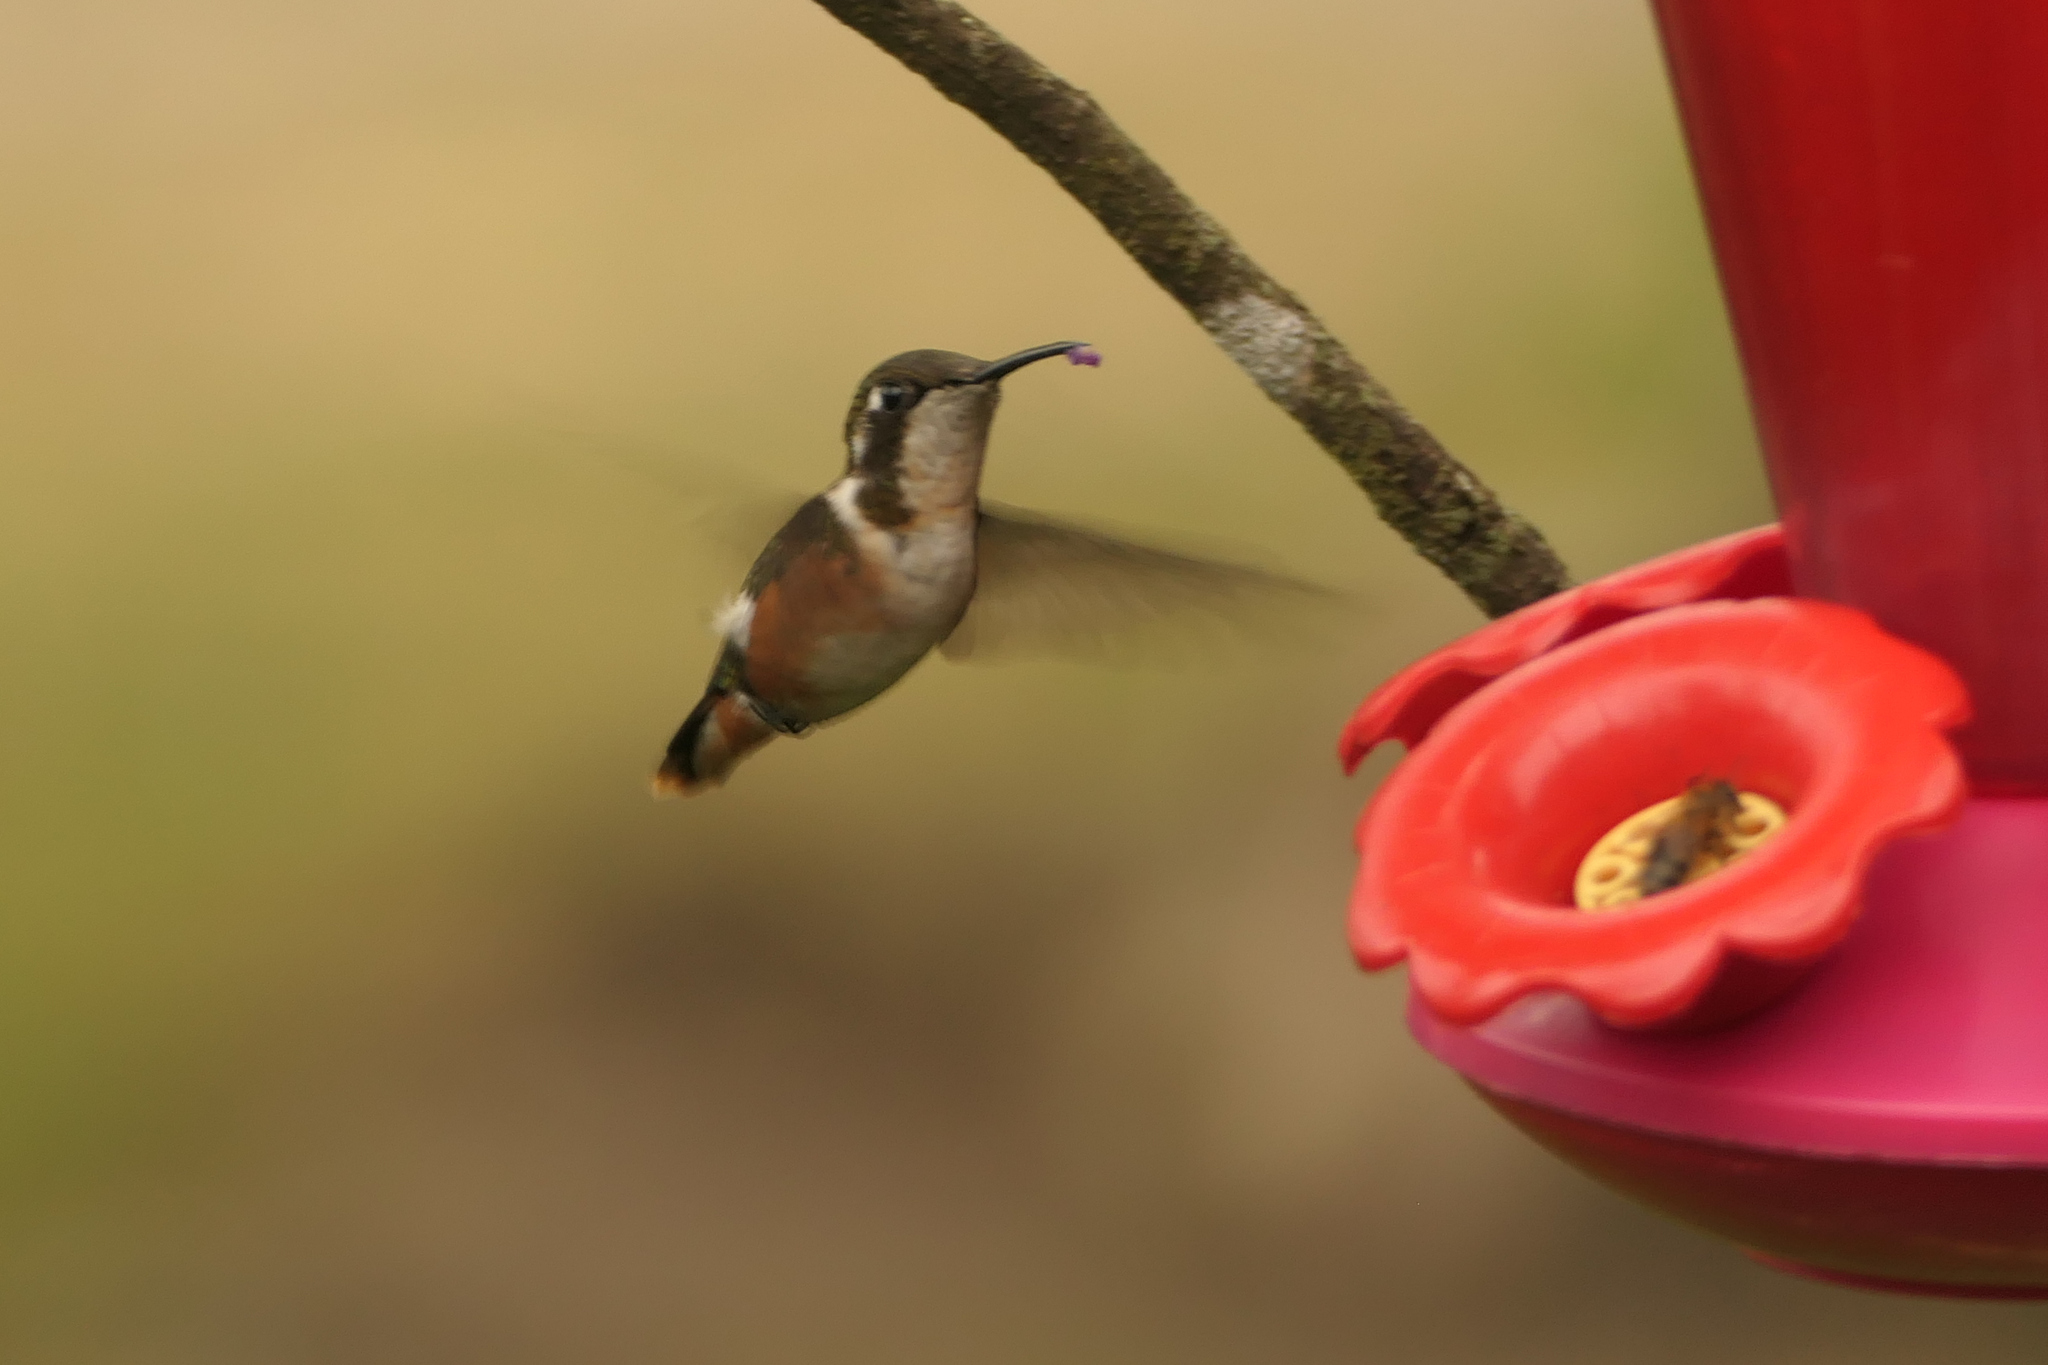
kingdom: Animalia
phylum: Chordata
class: Aves
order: Apodiformes
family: Trochilidae
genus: Chaetocercus
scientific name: Chaetocercus mulsant
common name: White-bellied woodstar
